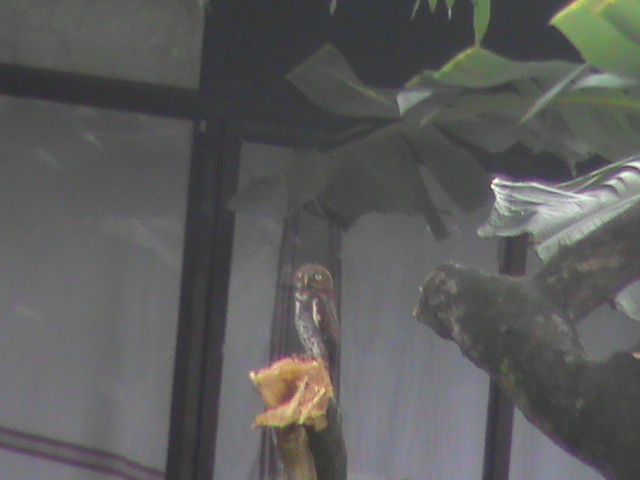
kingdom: Animalia
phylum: Chordata
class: Aves
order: Strigiformes
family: Strigidae
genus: Glaucidium
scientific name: Glaucidium radiatum
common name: Jungle owlet
